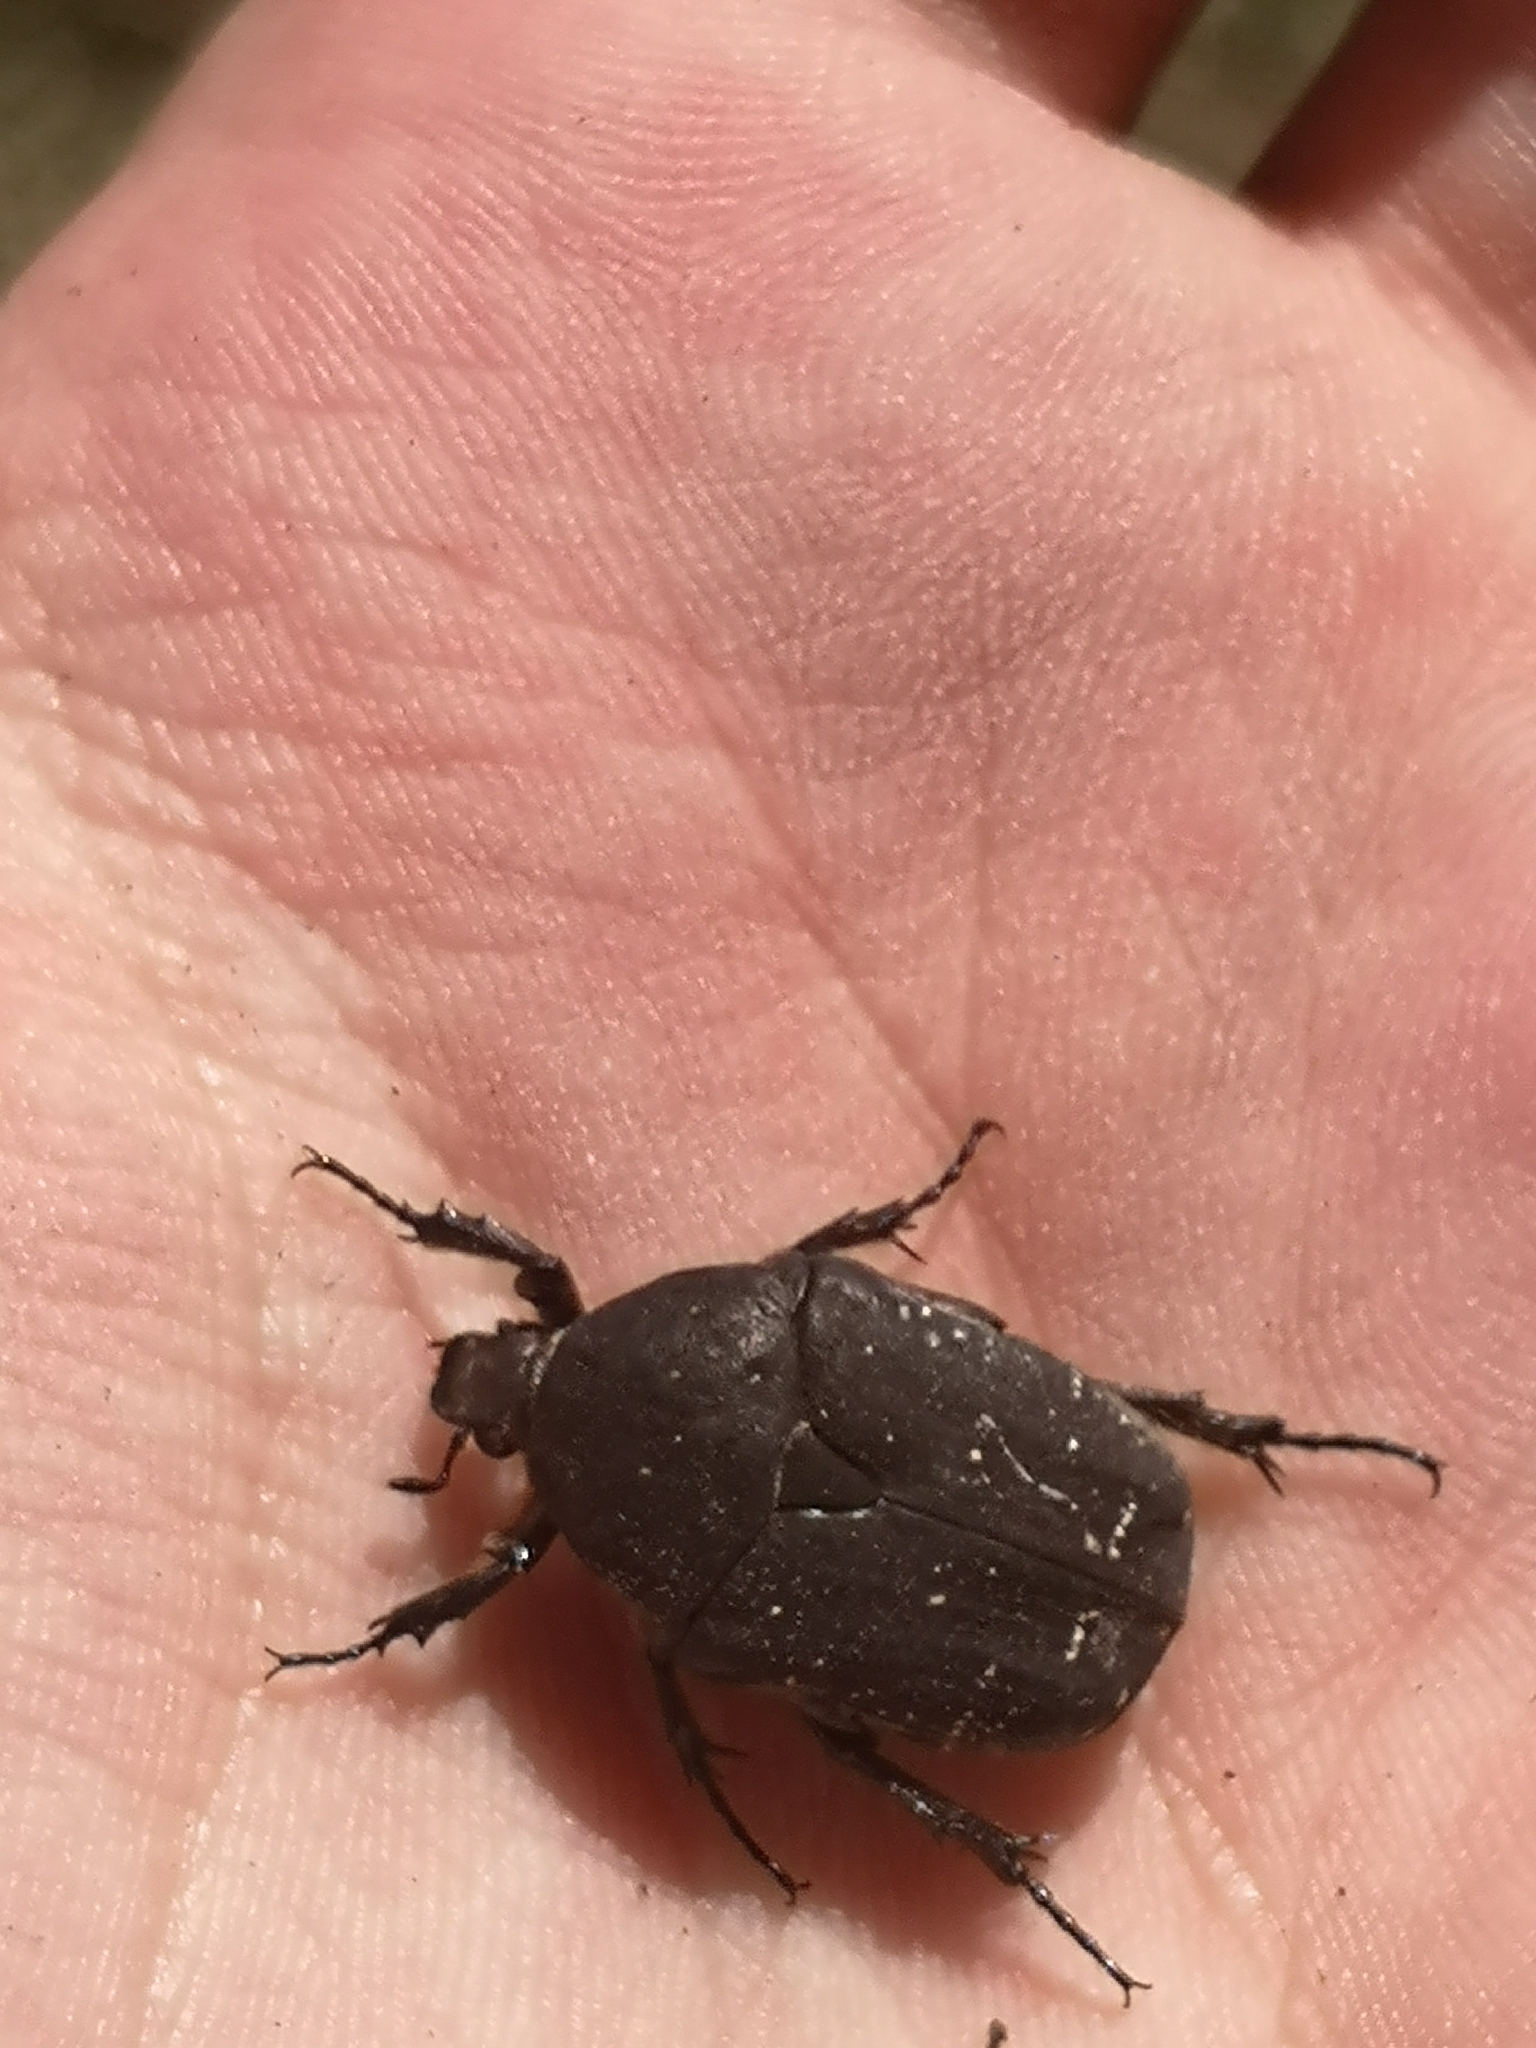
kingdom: Animalia
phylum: Arthropoda
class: Insecta
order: Coleoptera
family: Scarabaeidae
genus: Protaetia
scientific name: Protaetia morio
